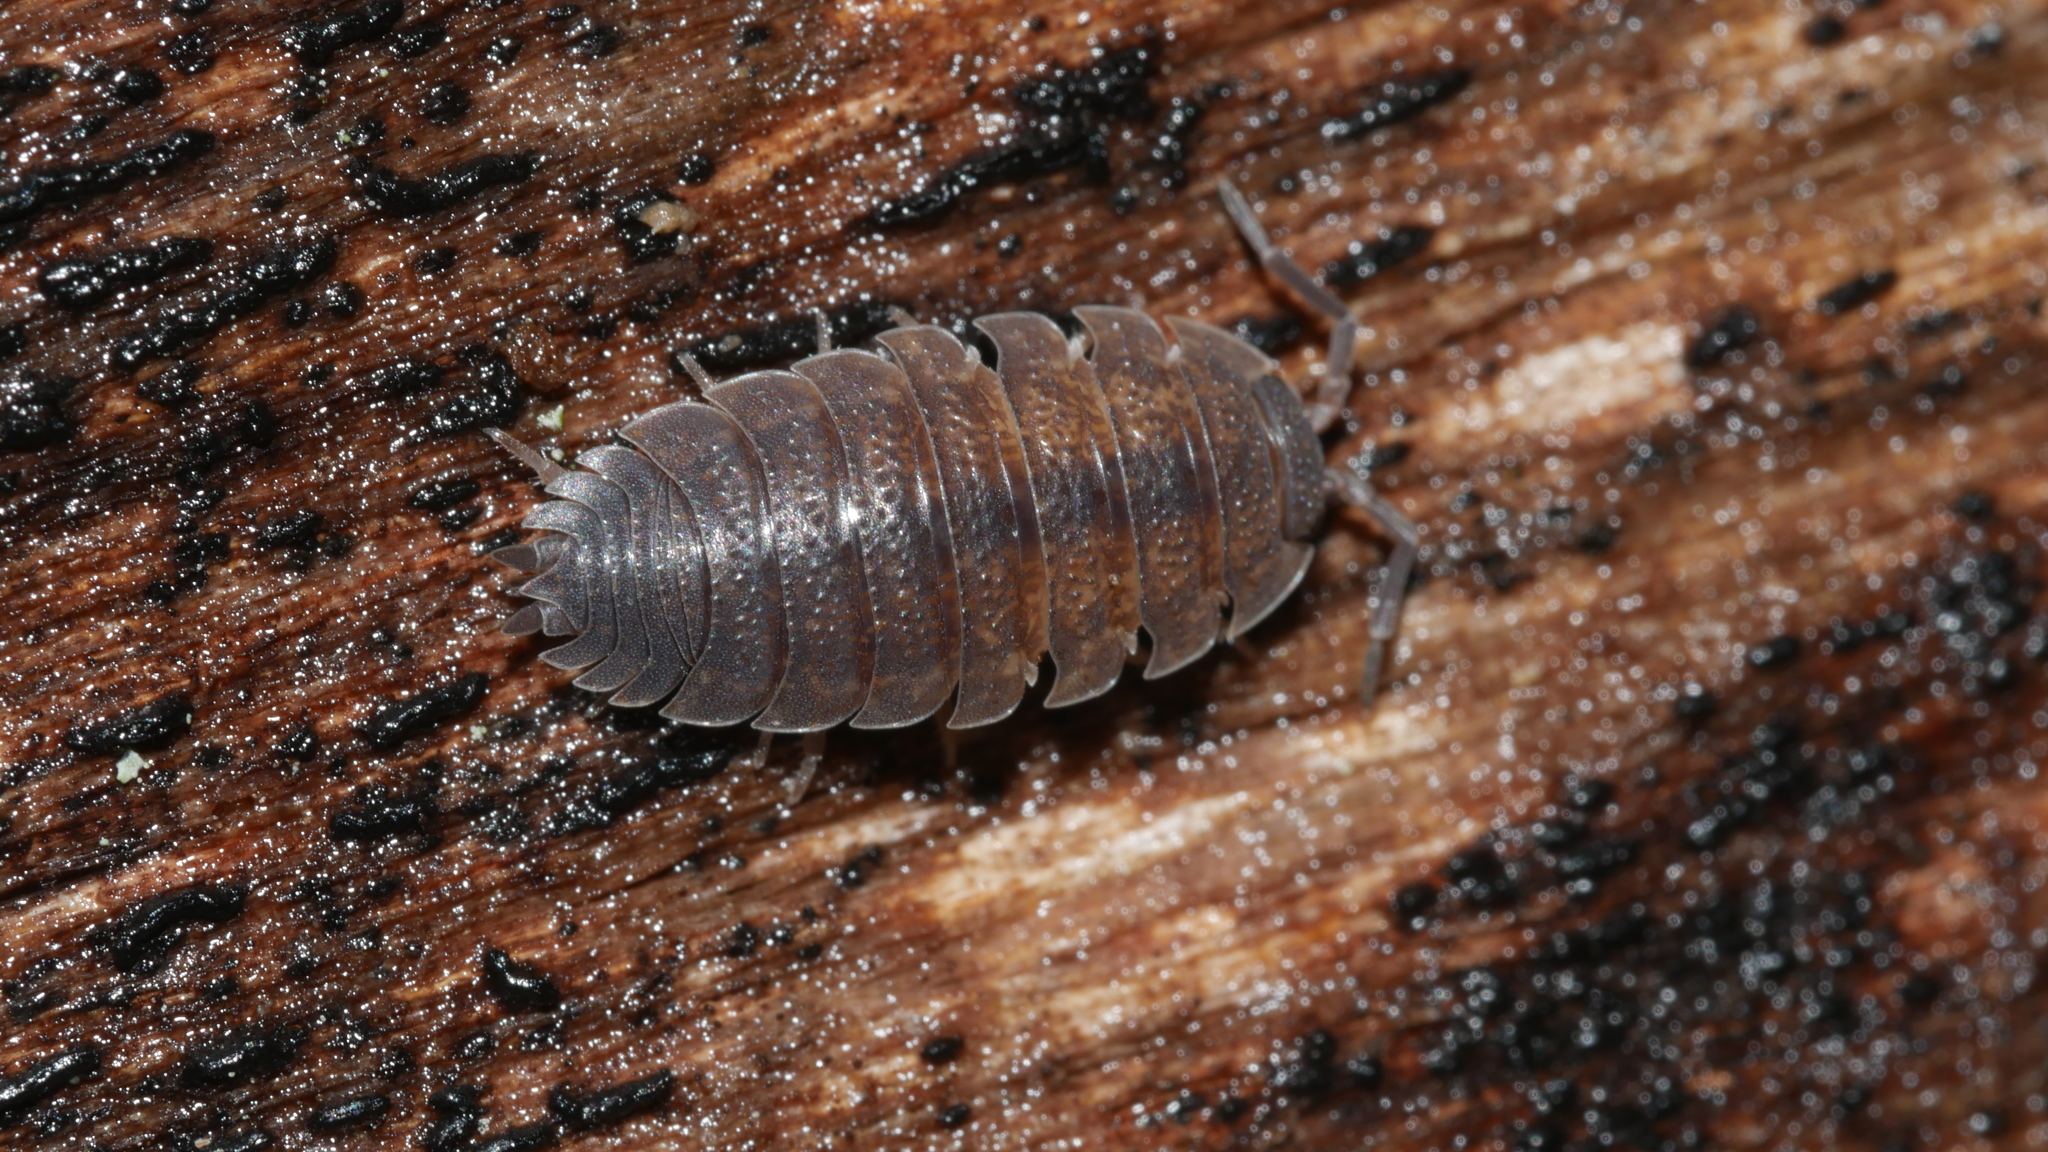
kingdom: Animalia
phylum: Arthropoda
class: Malacostraca
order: Isopoda
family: Porcellionidae
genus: Porcellio
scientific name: Porcellio scaber
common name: Common rough woodlouse
